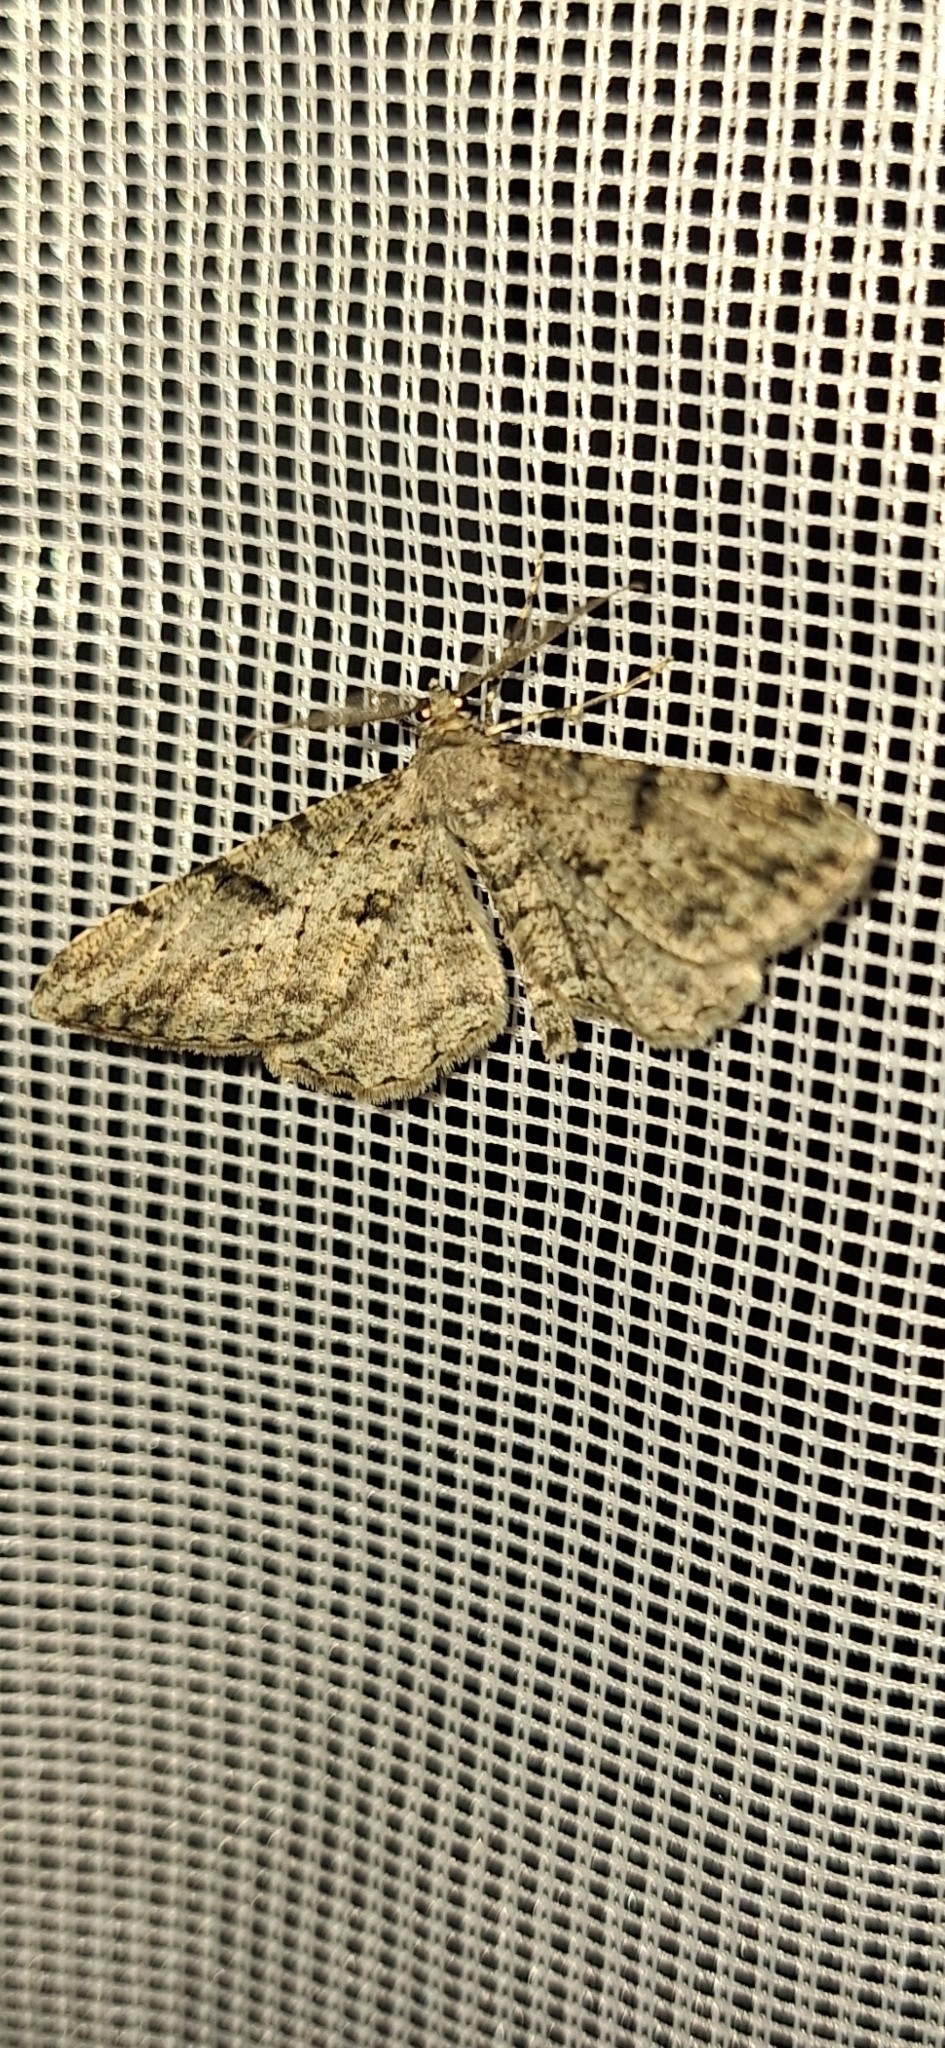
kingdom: Animalia
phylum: Arthropoda
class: Insecta
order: Lepidoptera
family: Geometridae
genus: Peribatodes
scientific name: Peribatodes rhomboidaria
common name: Willow beauty
